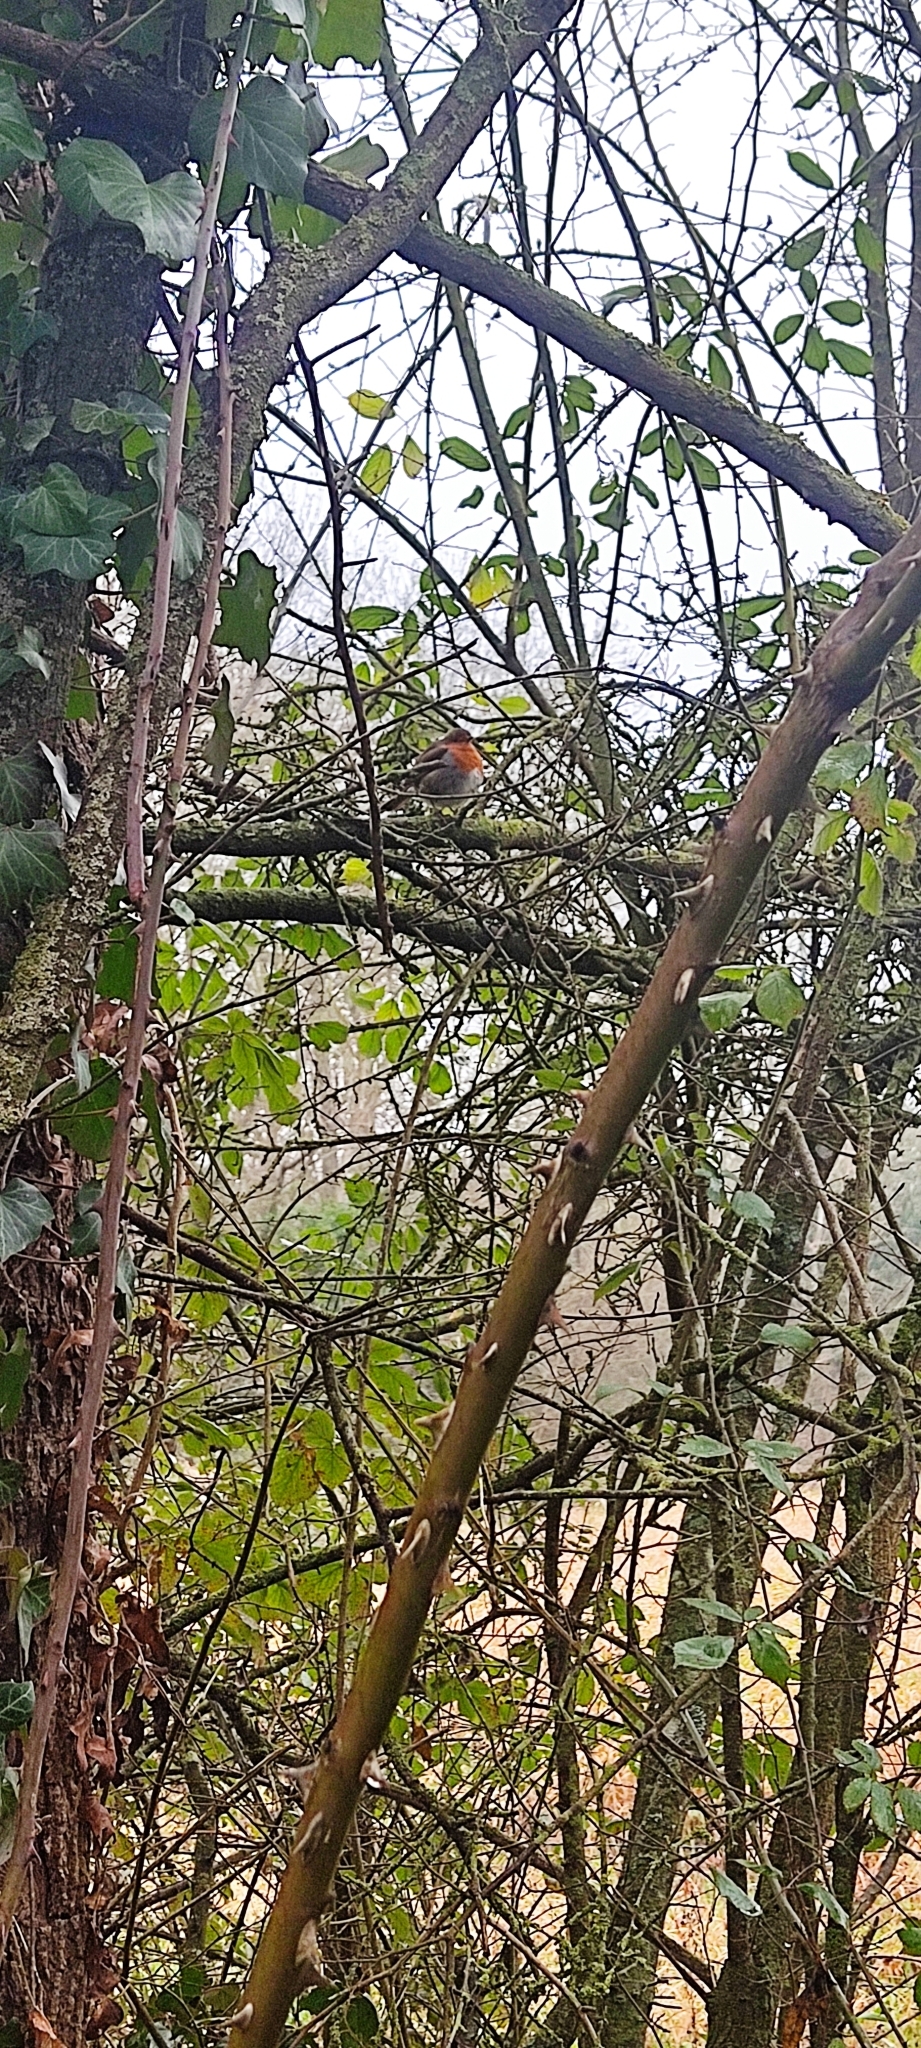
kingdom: Animalia
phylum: Chordata
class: Aves
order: Passeriformes
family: Muscicapidae
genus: Erithacus
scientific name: Erithacus rubecula
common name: European robin
